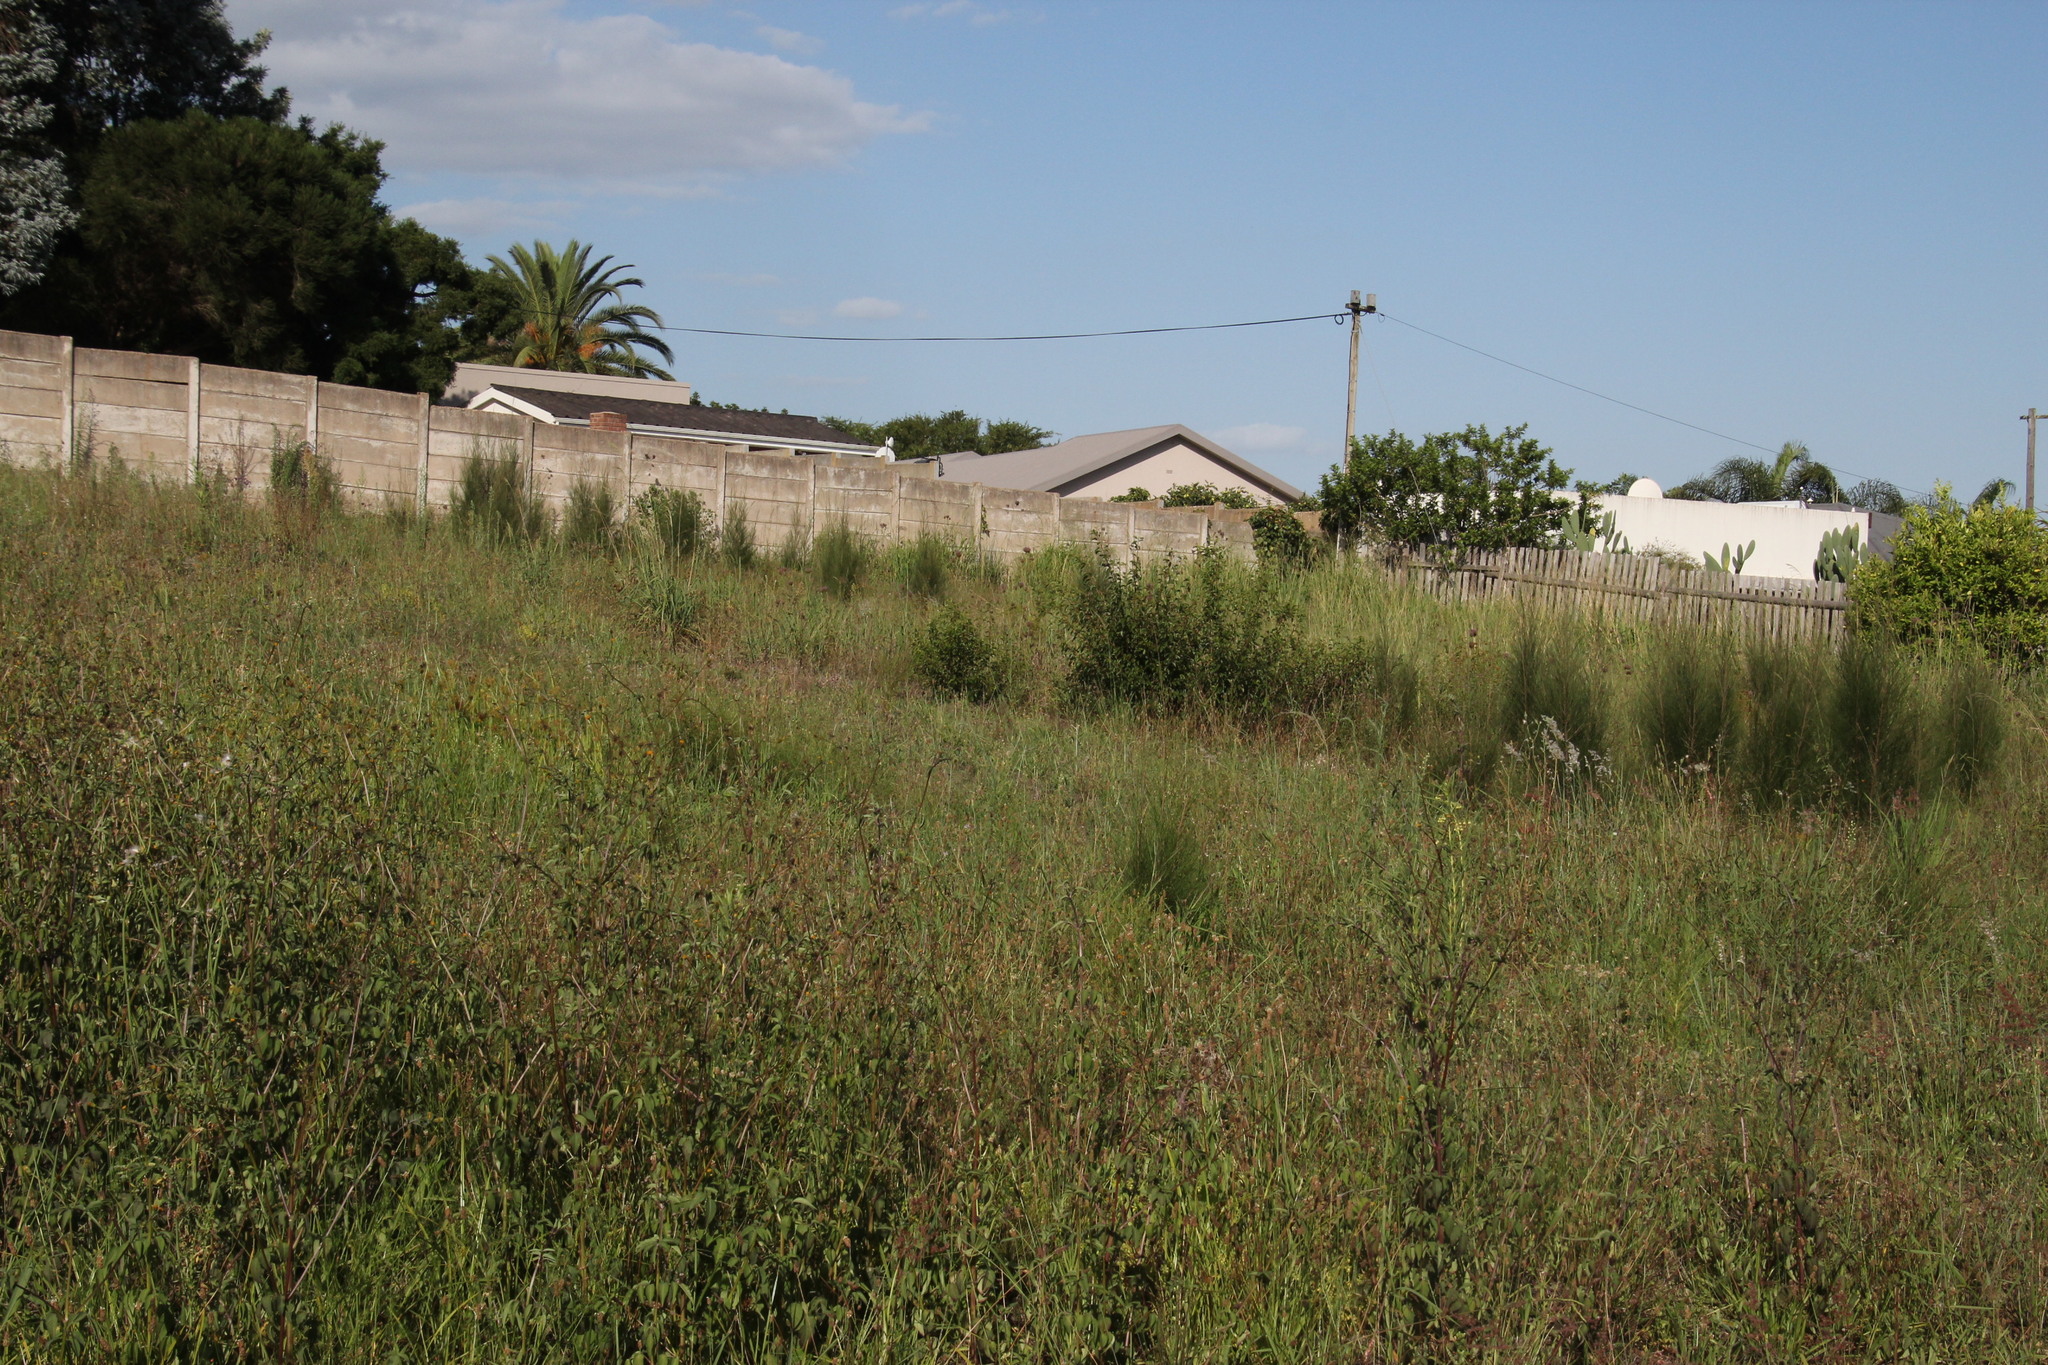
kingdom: Plantae
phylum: Tracheophyta
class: Magnoliopsida
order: Fagales
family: Casuarinaceae
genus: Casuarina
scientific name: Casuarina cunninghamiana
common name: River sheoak
